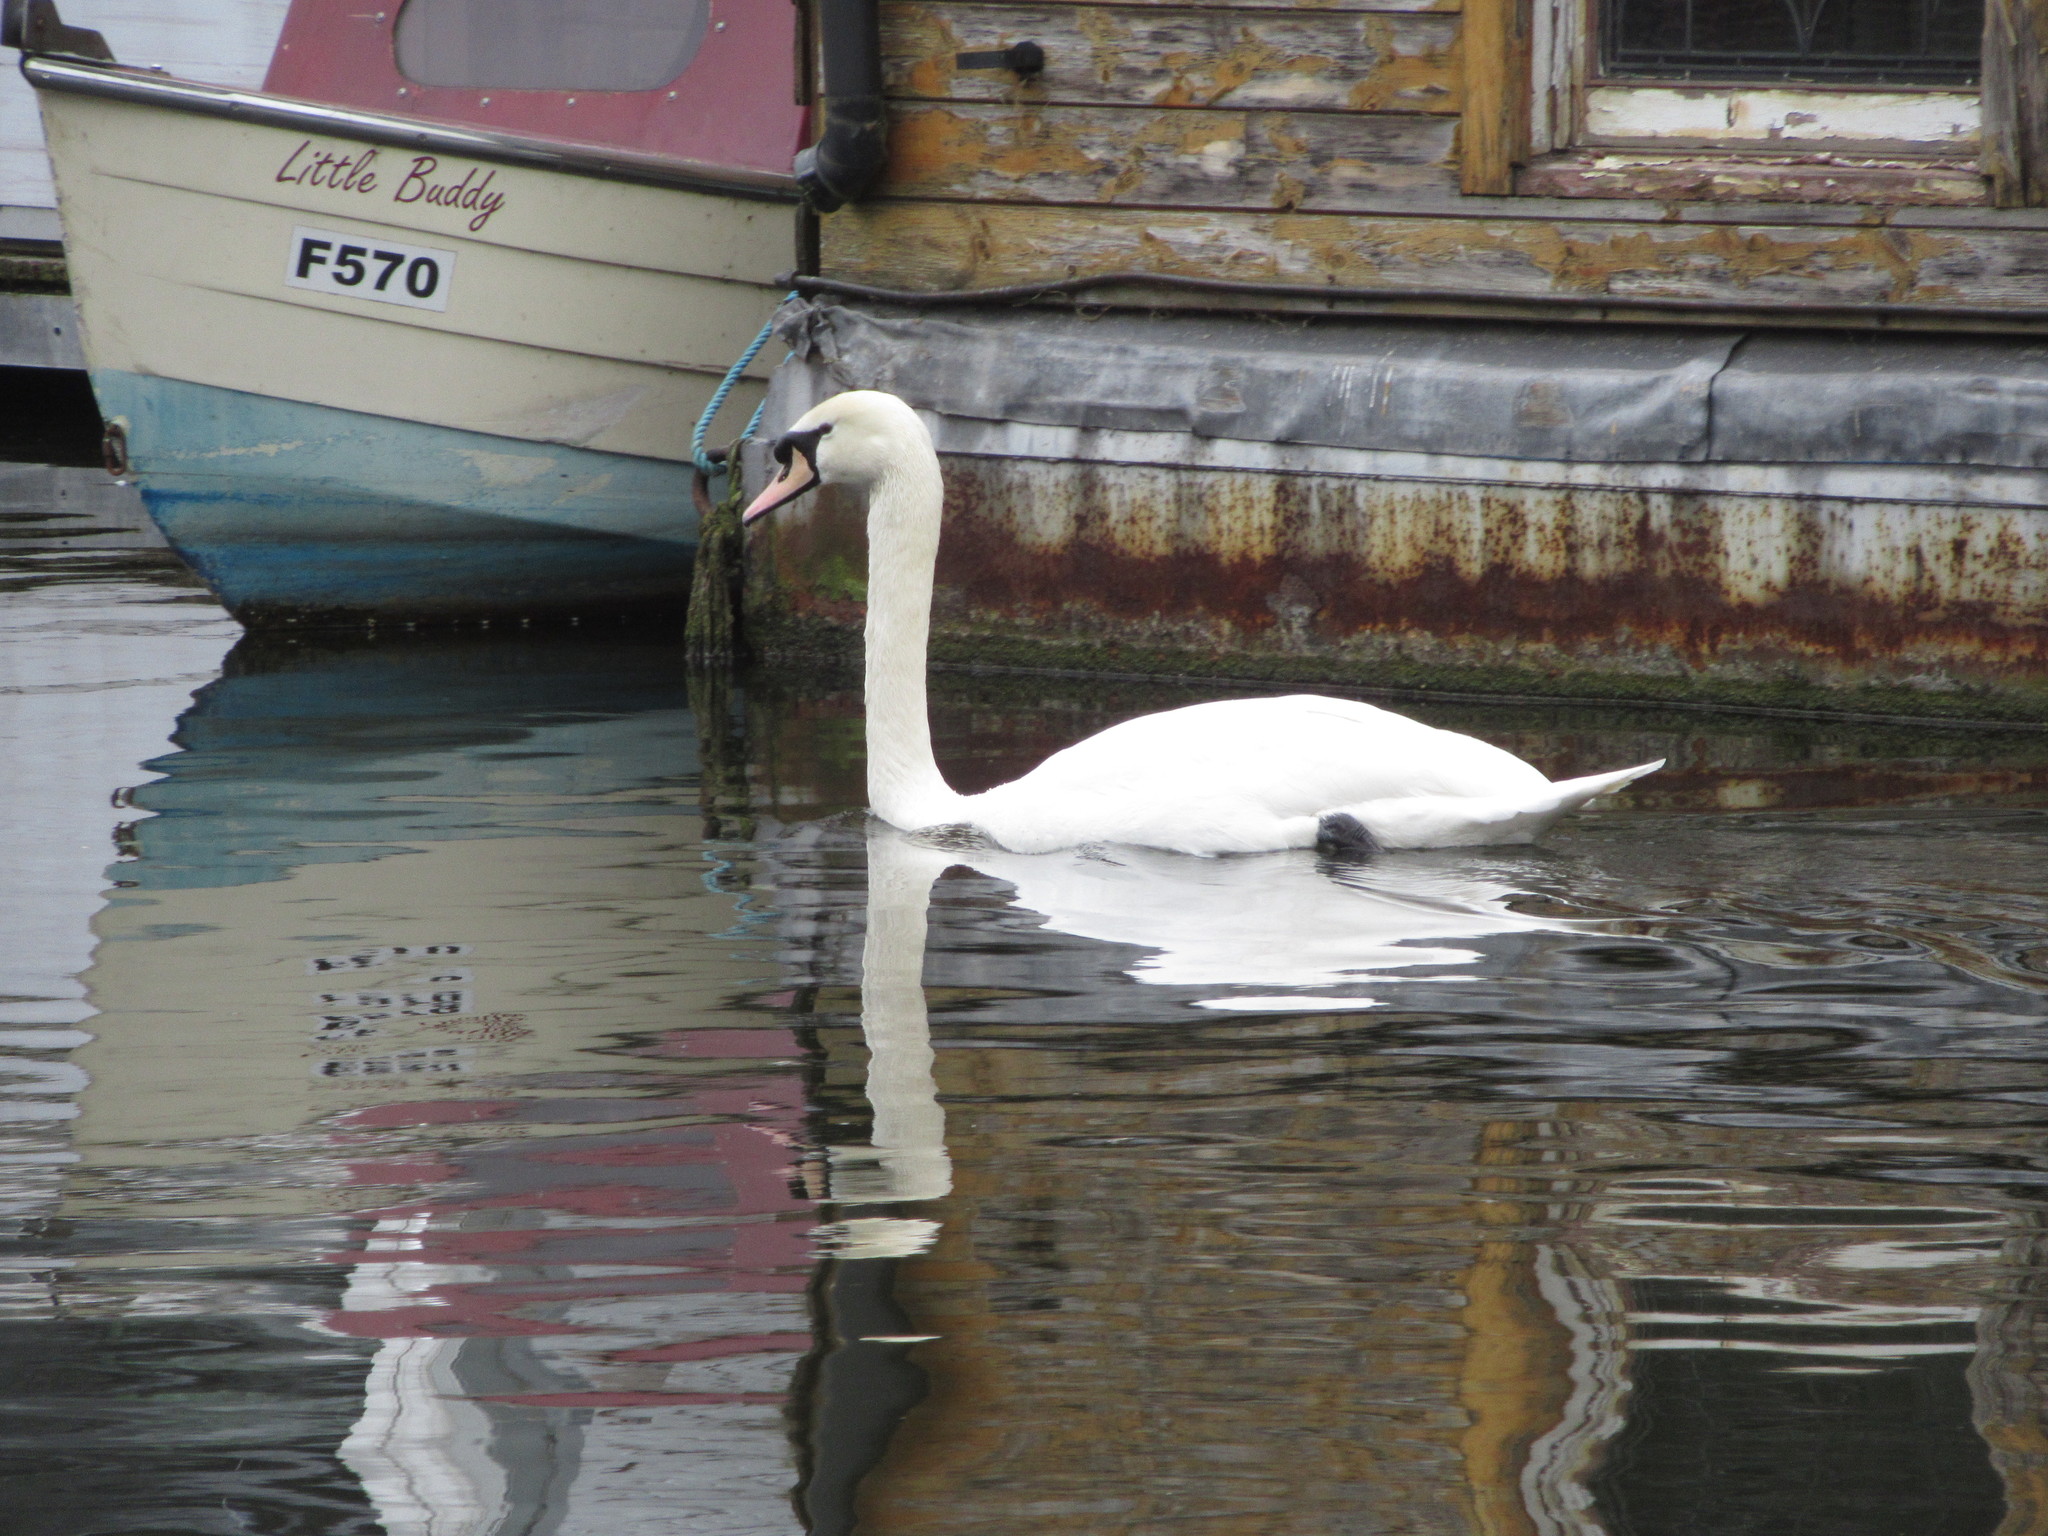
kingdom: Animalia
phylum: Chordata
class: Aves
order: Anseriformes
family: Anatidae
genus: Cygnus
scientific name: Cygnus olor
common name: Mute swan
